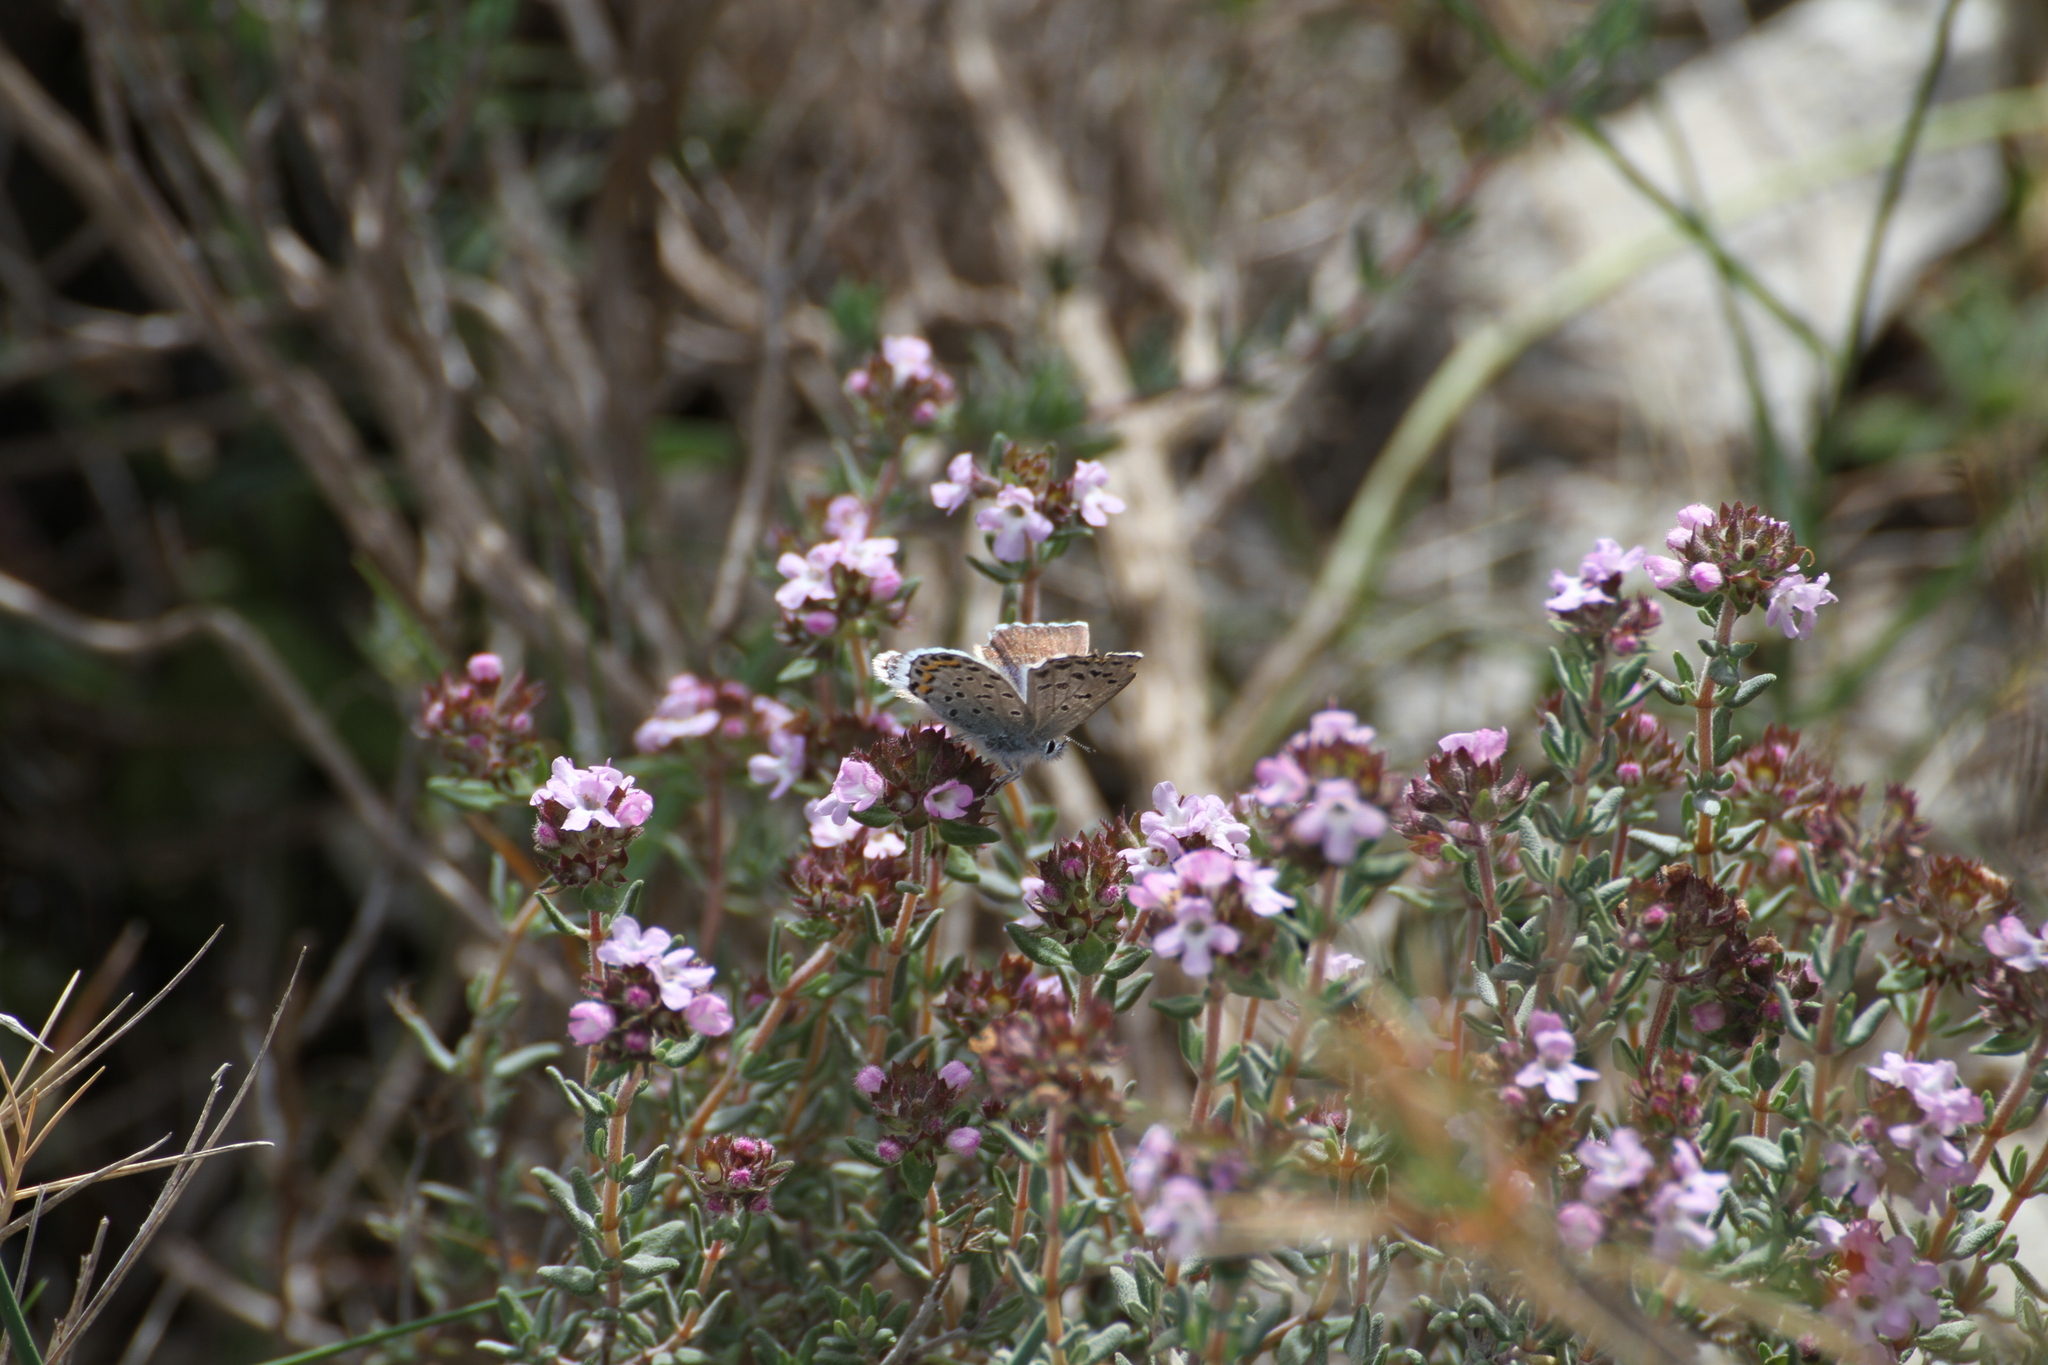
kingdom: Animalia
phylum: Arthropoda
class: Insecta
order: Lepidoptera
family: Lycaenidae
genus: Pseudophilotes
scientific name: Pseudophilotes baton
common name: Baton blue
